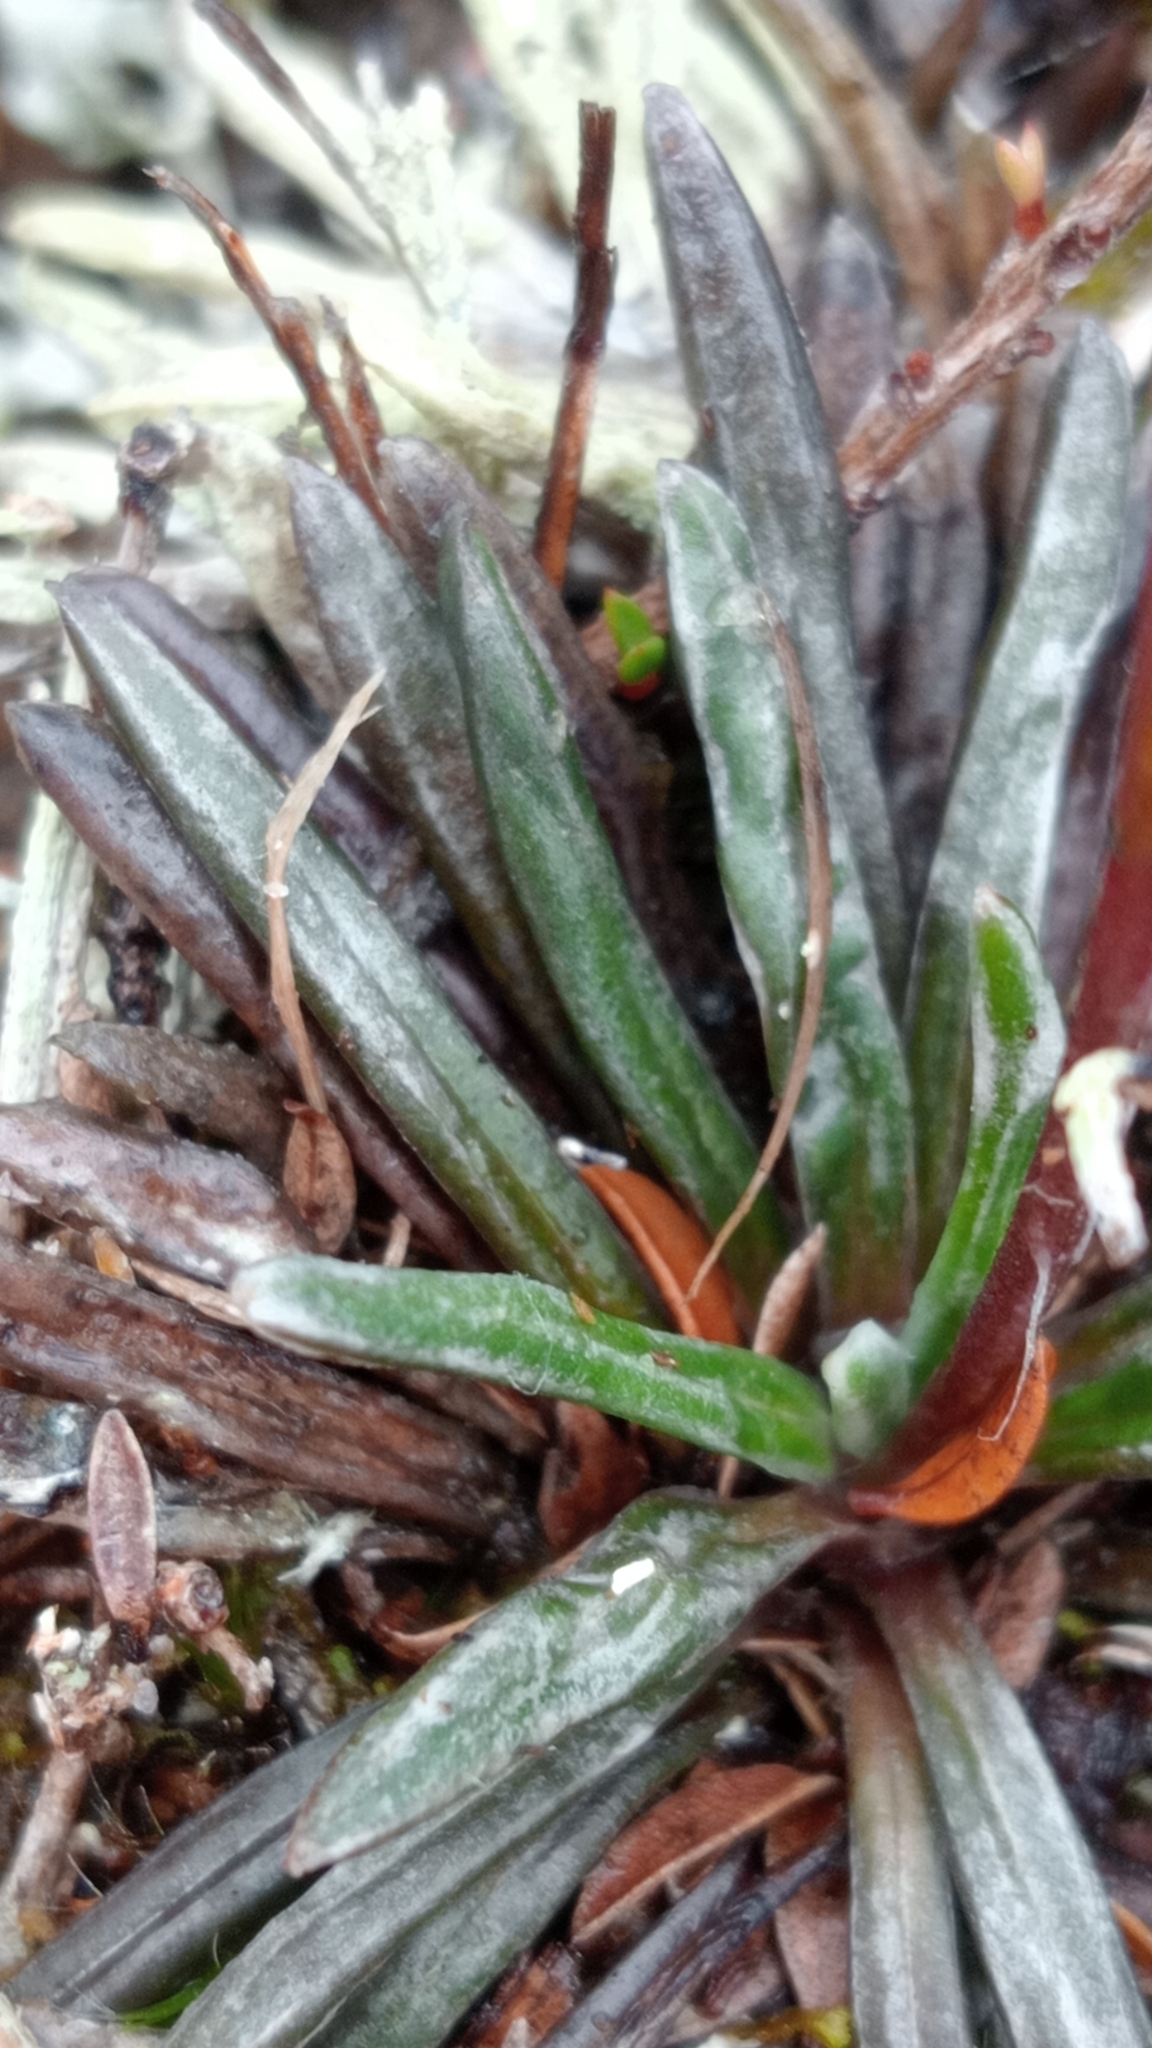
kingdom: Plantae
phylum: Tracheophyta
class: Magnoliopsida
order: Asterales
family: Asteraceae
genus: Celmisia
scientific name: Celmisia similis
